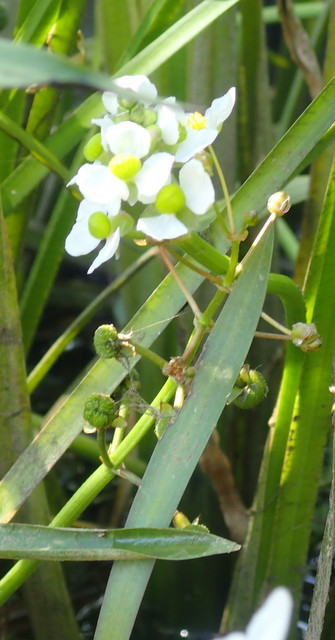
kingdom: Plantae
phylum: Tracheophyta
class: Liliopsida
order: Alismatales
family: Alismataceae
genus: Sagittaria
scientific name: Sagittaria platyphylla
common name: Broad-leaf arrowhead
